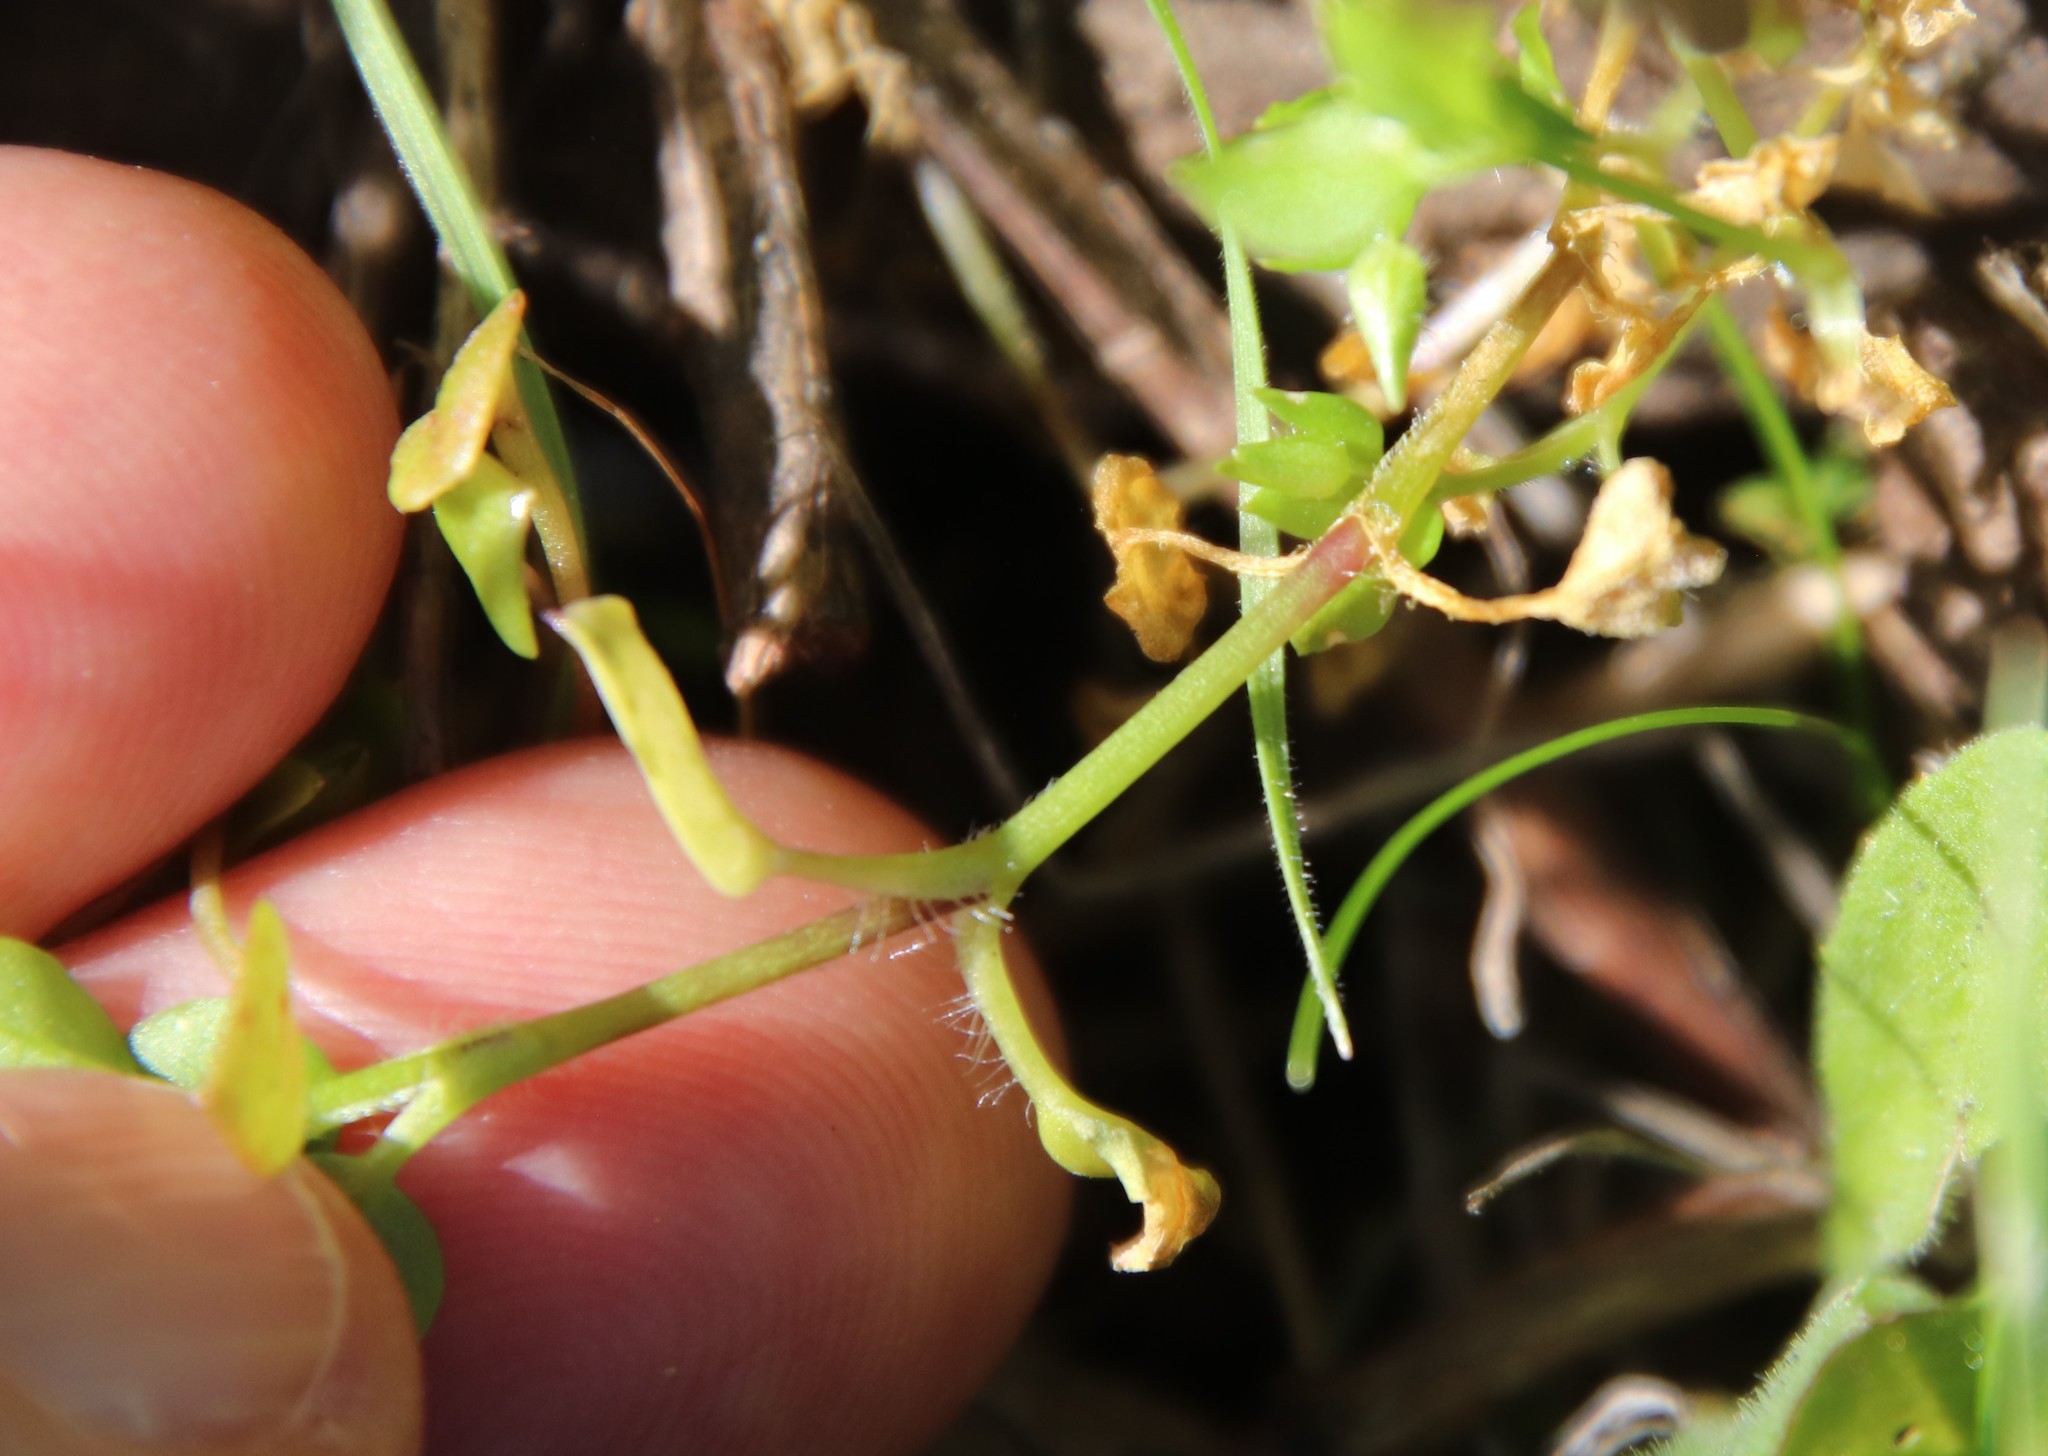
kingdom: Plantae
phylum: Tracheophyta
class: Magnoliopsida
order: Caryophyllales
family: Caryophyllaceae
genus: Stellaria
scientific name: Stellaria media
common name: Common chickweed
